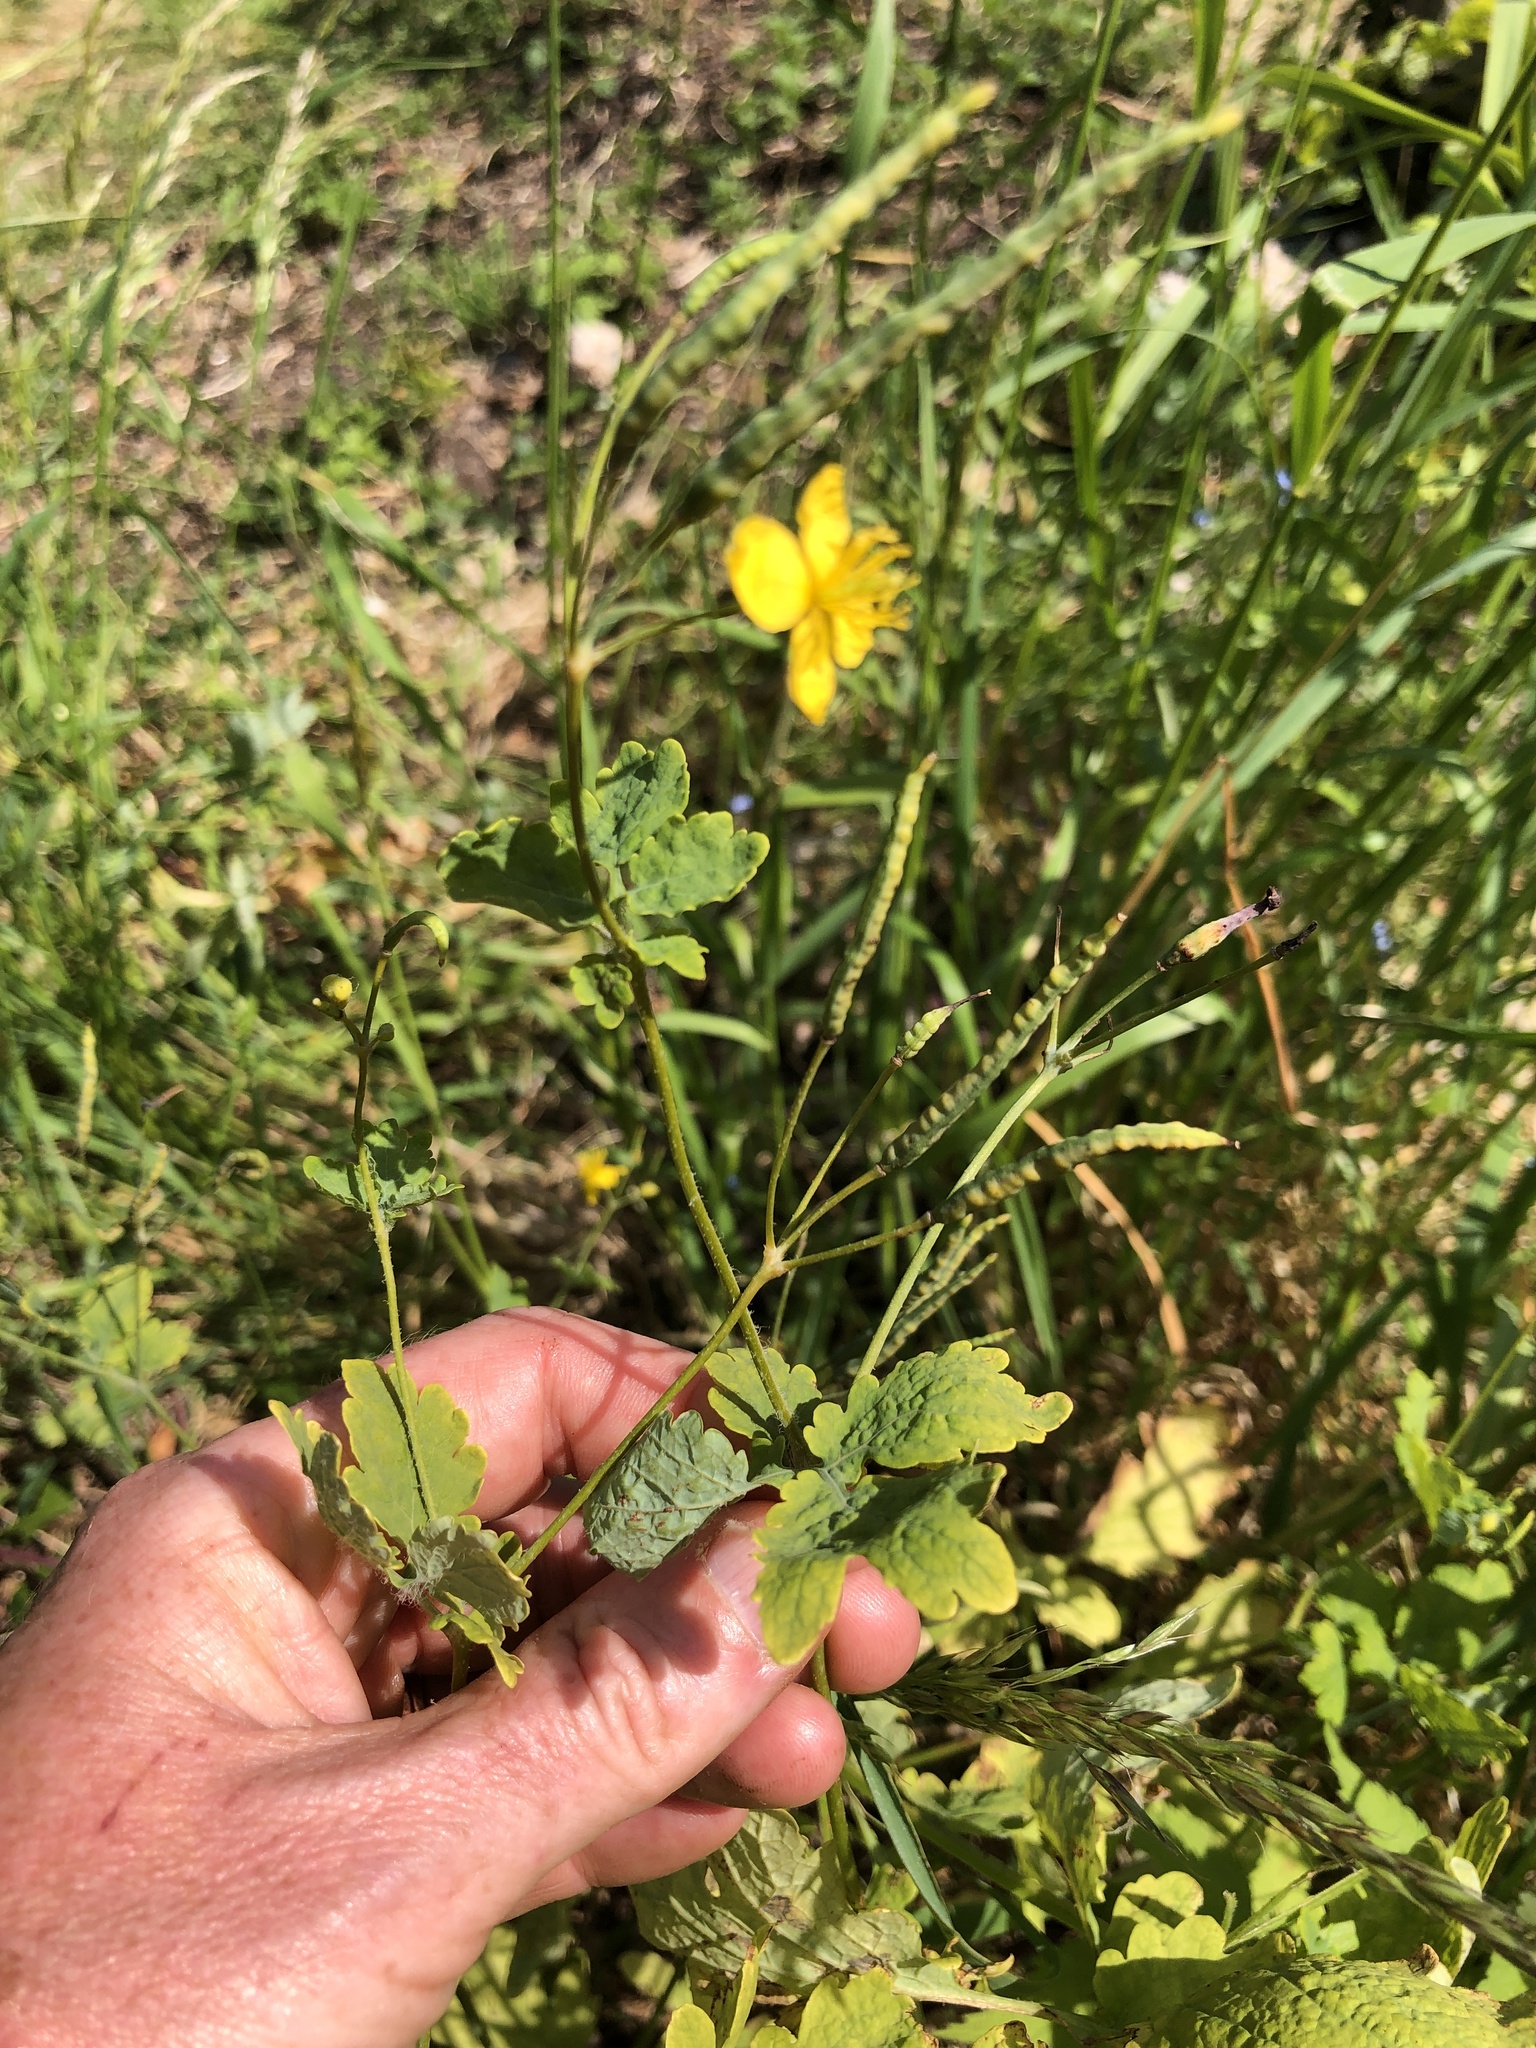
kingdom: Plantae
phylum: Tracheophyta
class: Magnoliopsida
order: Ranunculales
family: Papaveraceae
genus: Chelidonium
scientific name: Chelidonium majus
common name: Greater celandine
